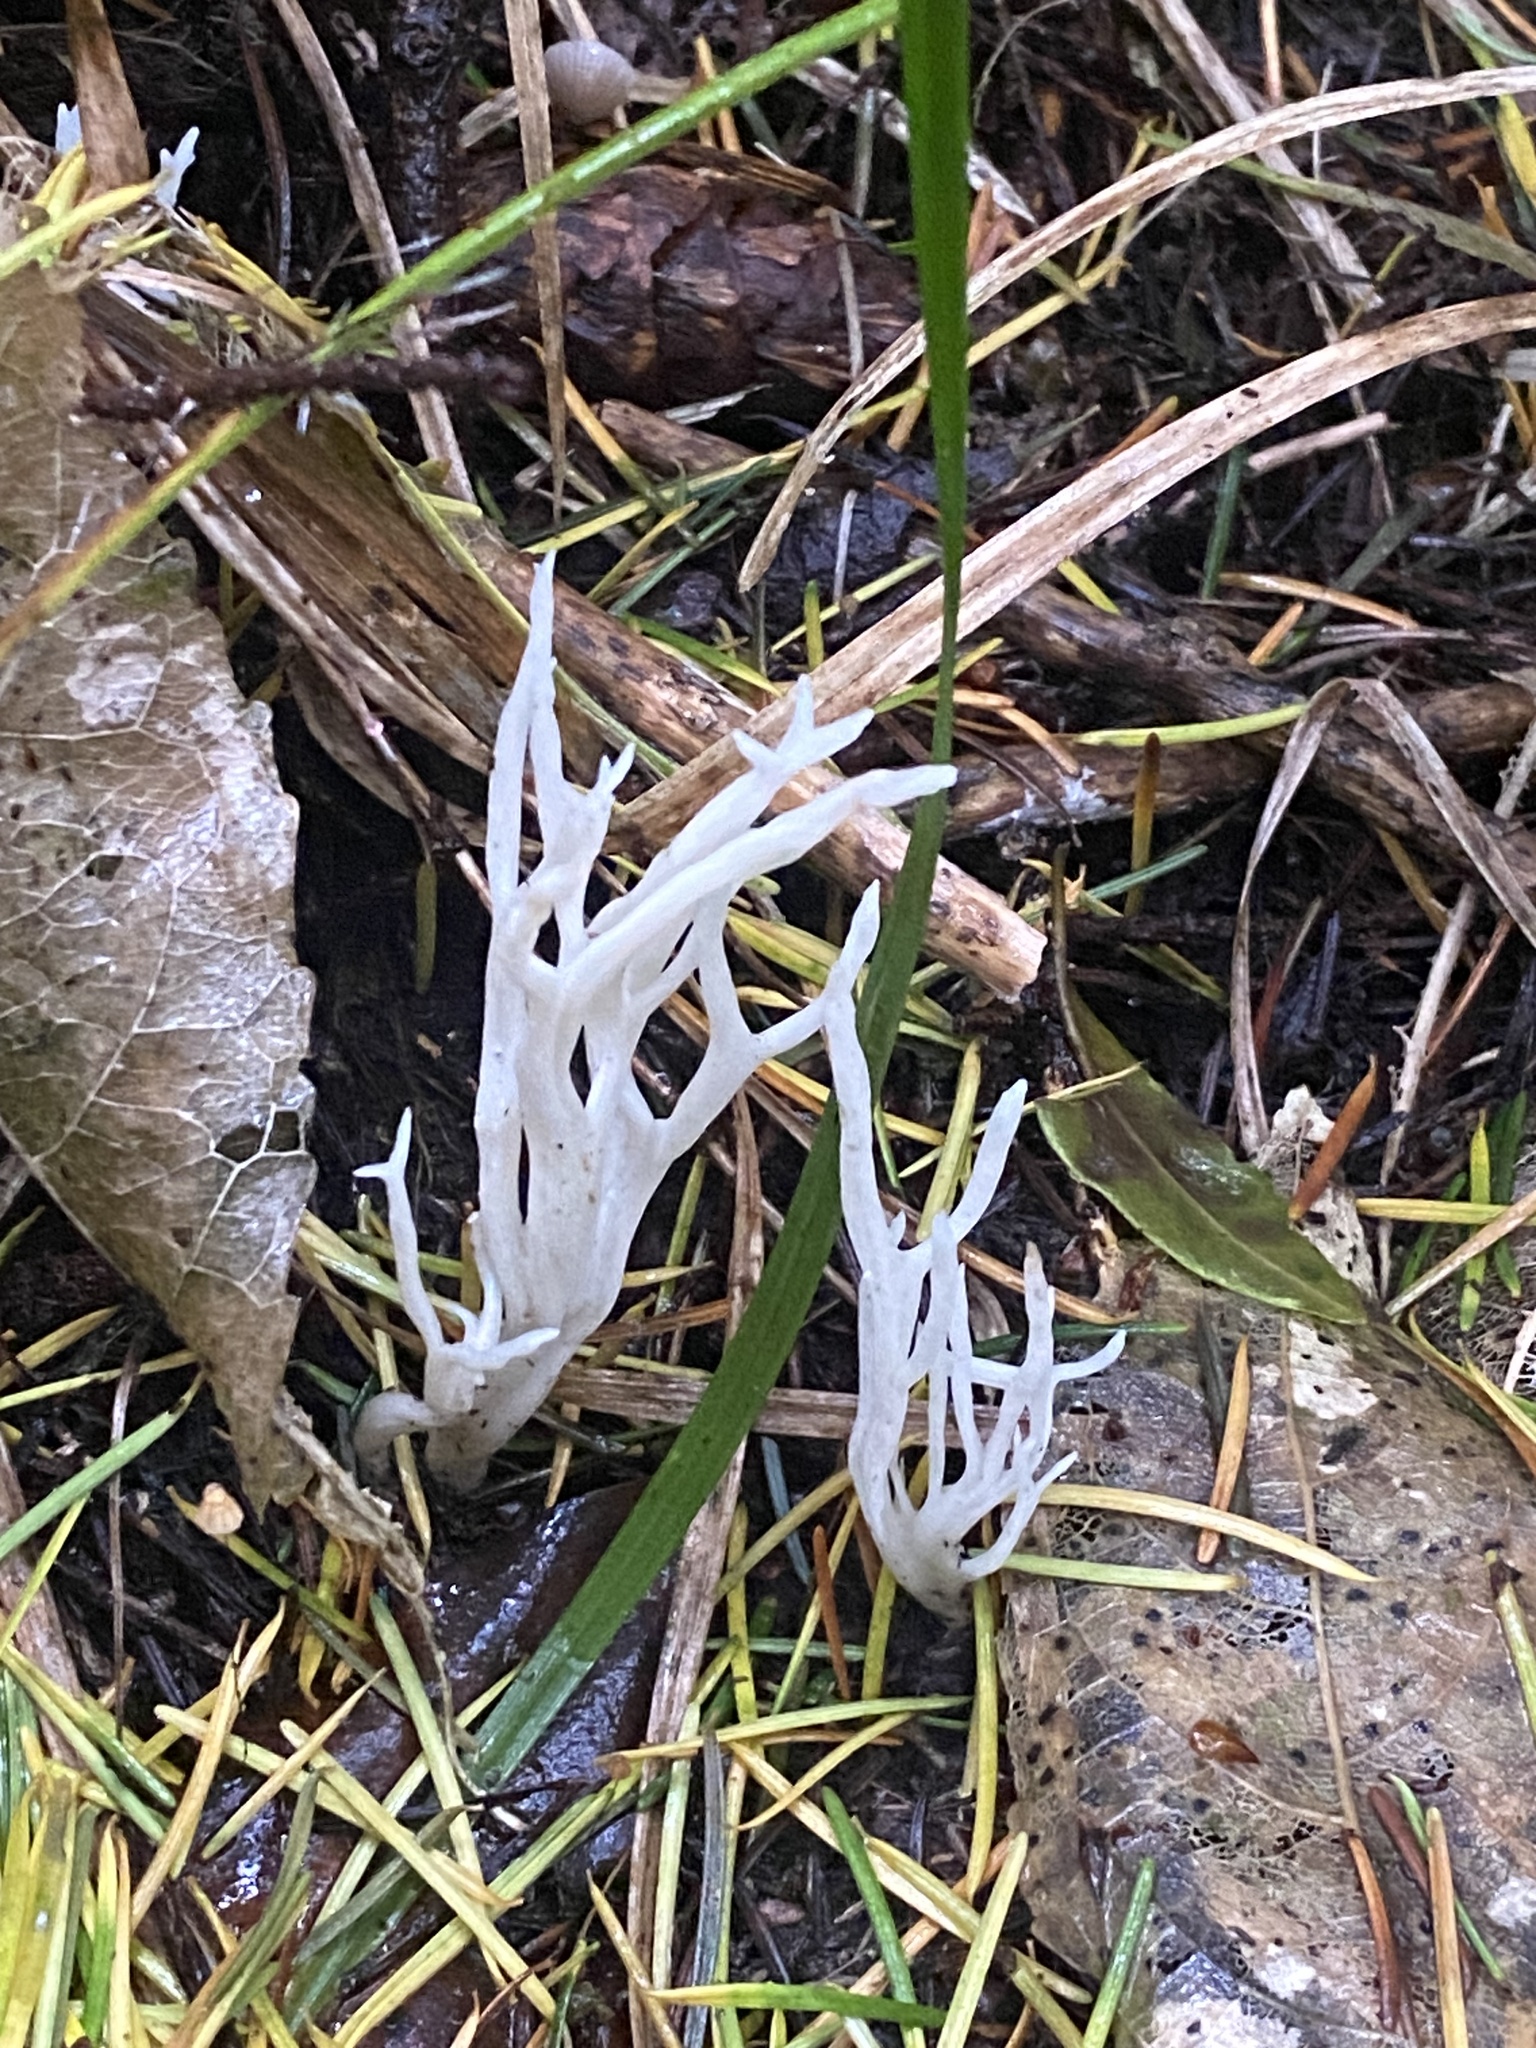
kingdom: Fungi
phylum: Basidiomycota
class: Agaricomycetes
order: Cantharellales
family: Hydnaceae
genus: Clavulina
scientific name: Clavulina rugosa
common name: Wrinkled club
